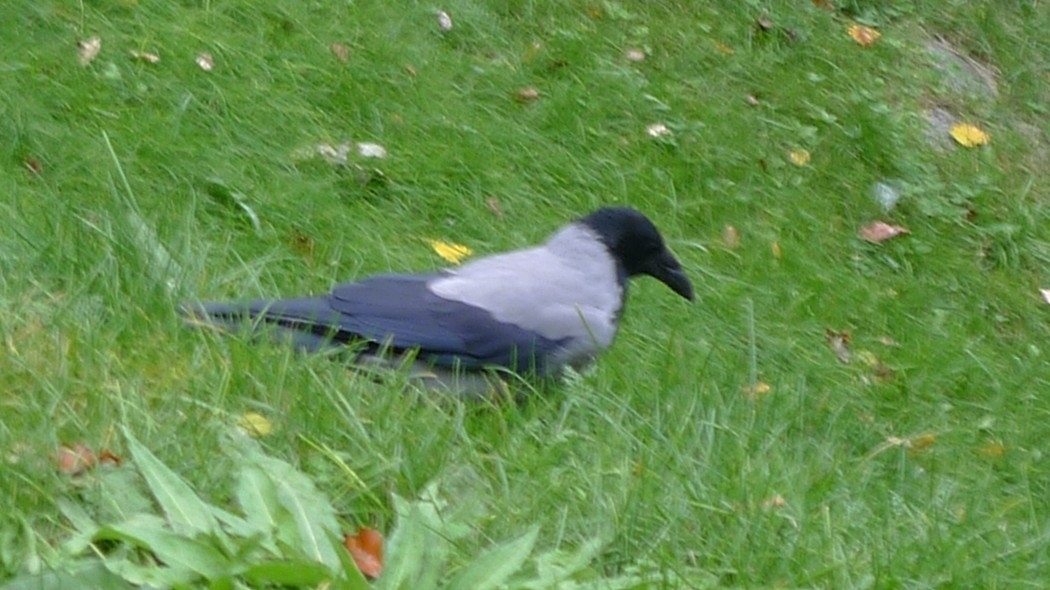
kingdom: Animalia
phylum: Chordata
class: Aves
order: Passeriformes
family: Corvidae
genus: Corvus
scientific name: Corvus cornix
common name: Hooded crow
